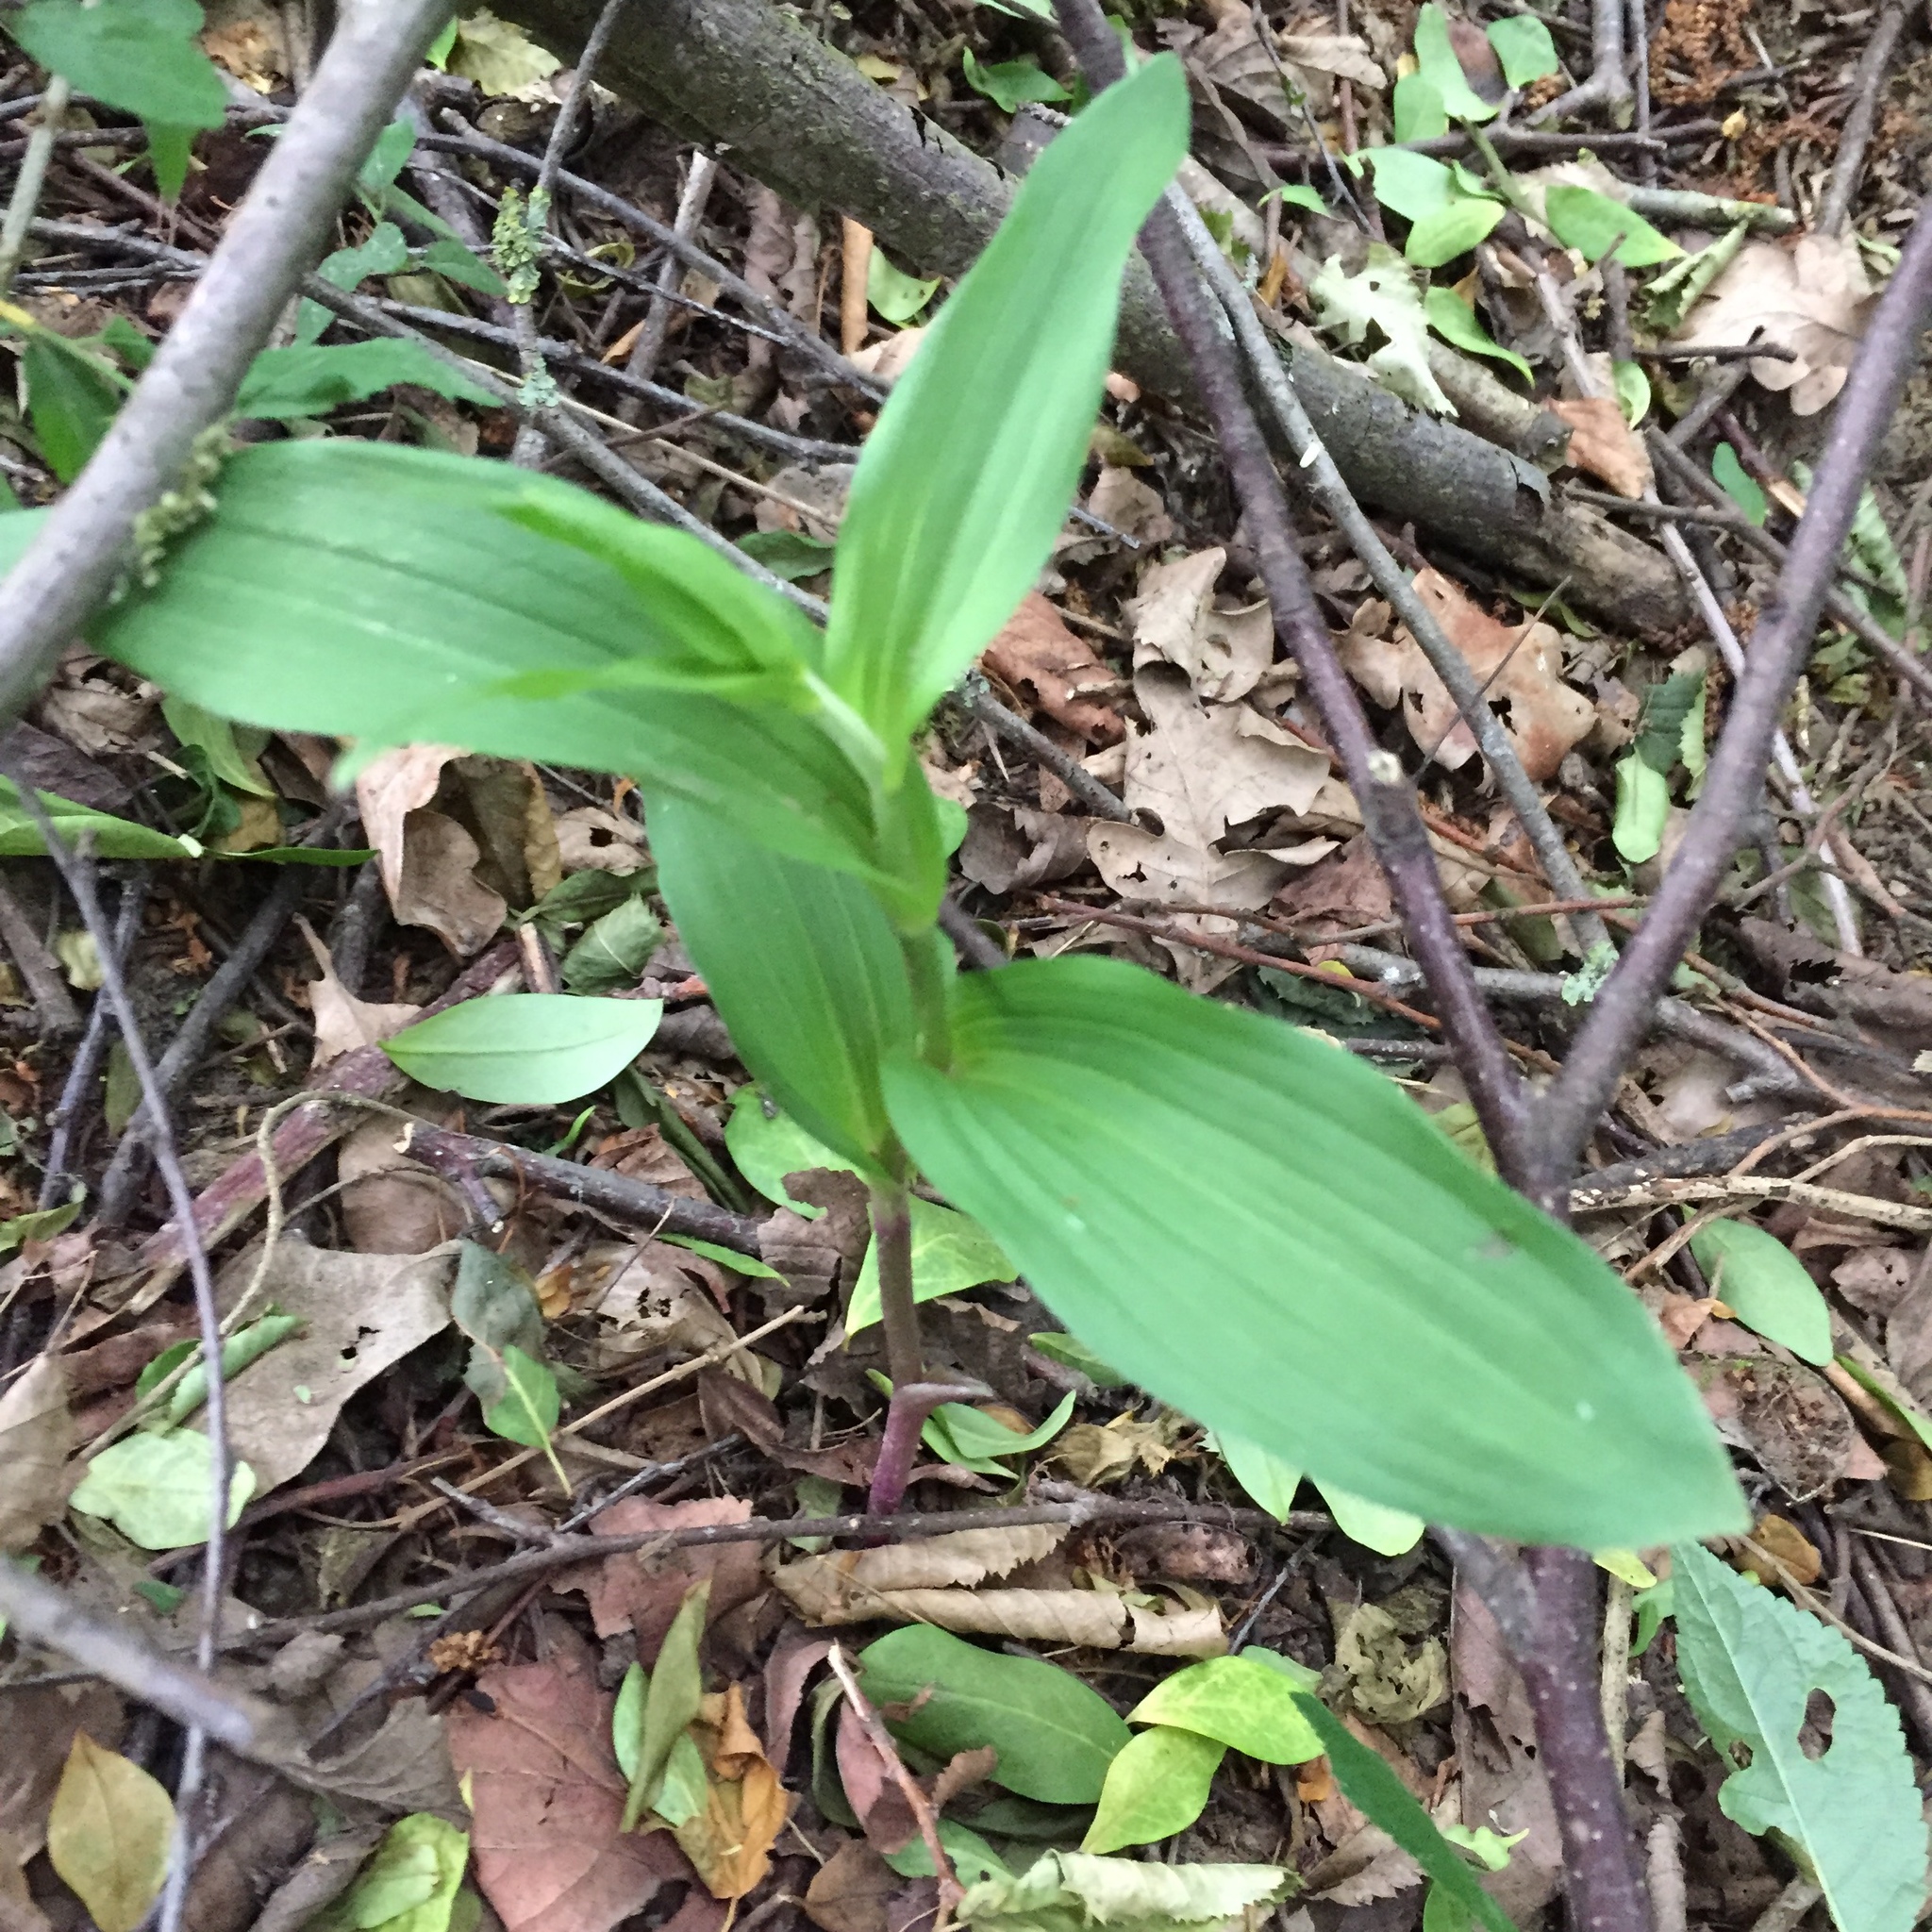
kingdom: Plantae
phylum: Tracheophyta
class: Liliopsida
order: Asparagales
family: Orchidaceae
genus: Epipactis
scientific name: Epipactis helleborine
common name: Broad-leaved helleborine
